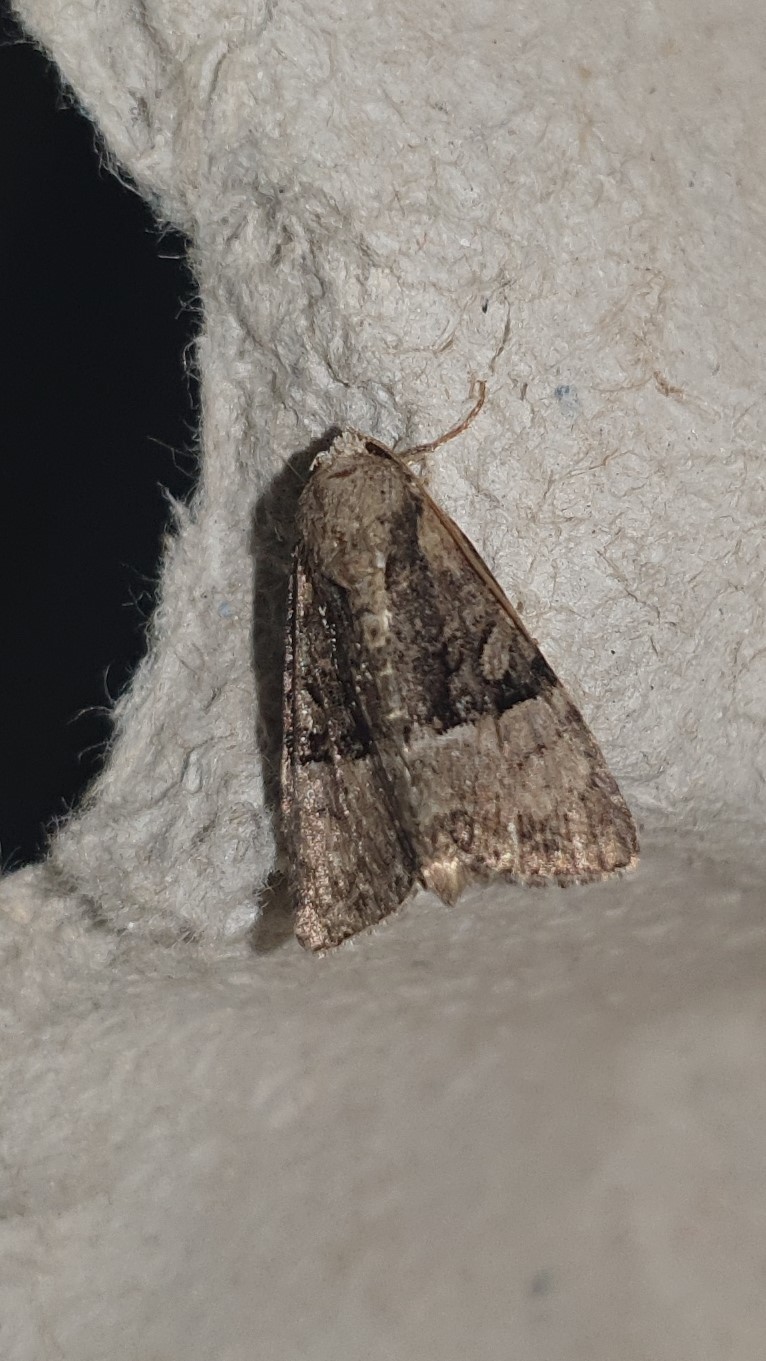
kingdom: Animalia
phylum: Arthropoda
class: Insecta
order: Lepidoptera
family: Noctuidae
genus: Mesoligia
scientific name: Mesoligia furuncula
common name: Cloaked minor
